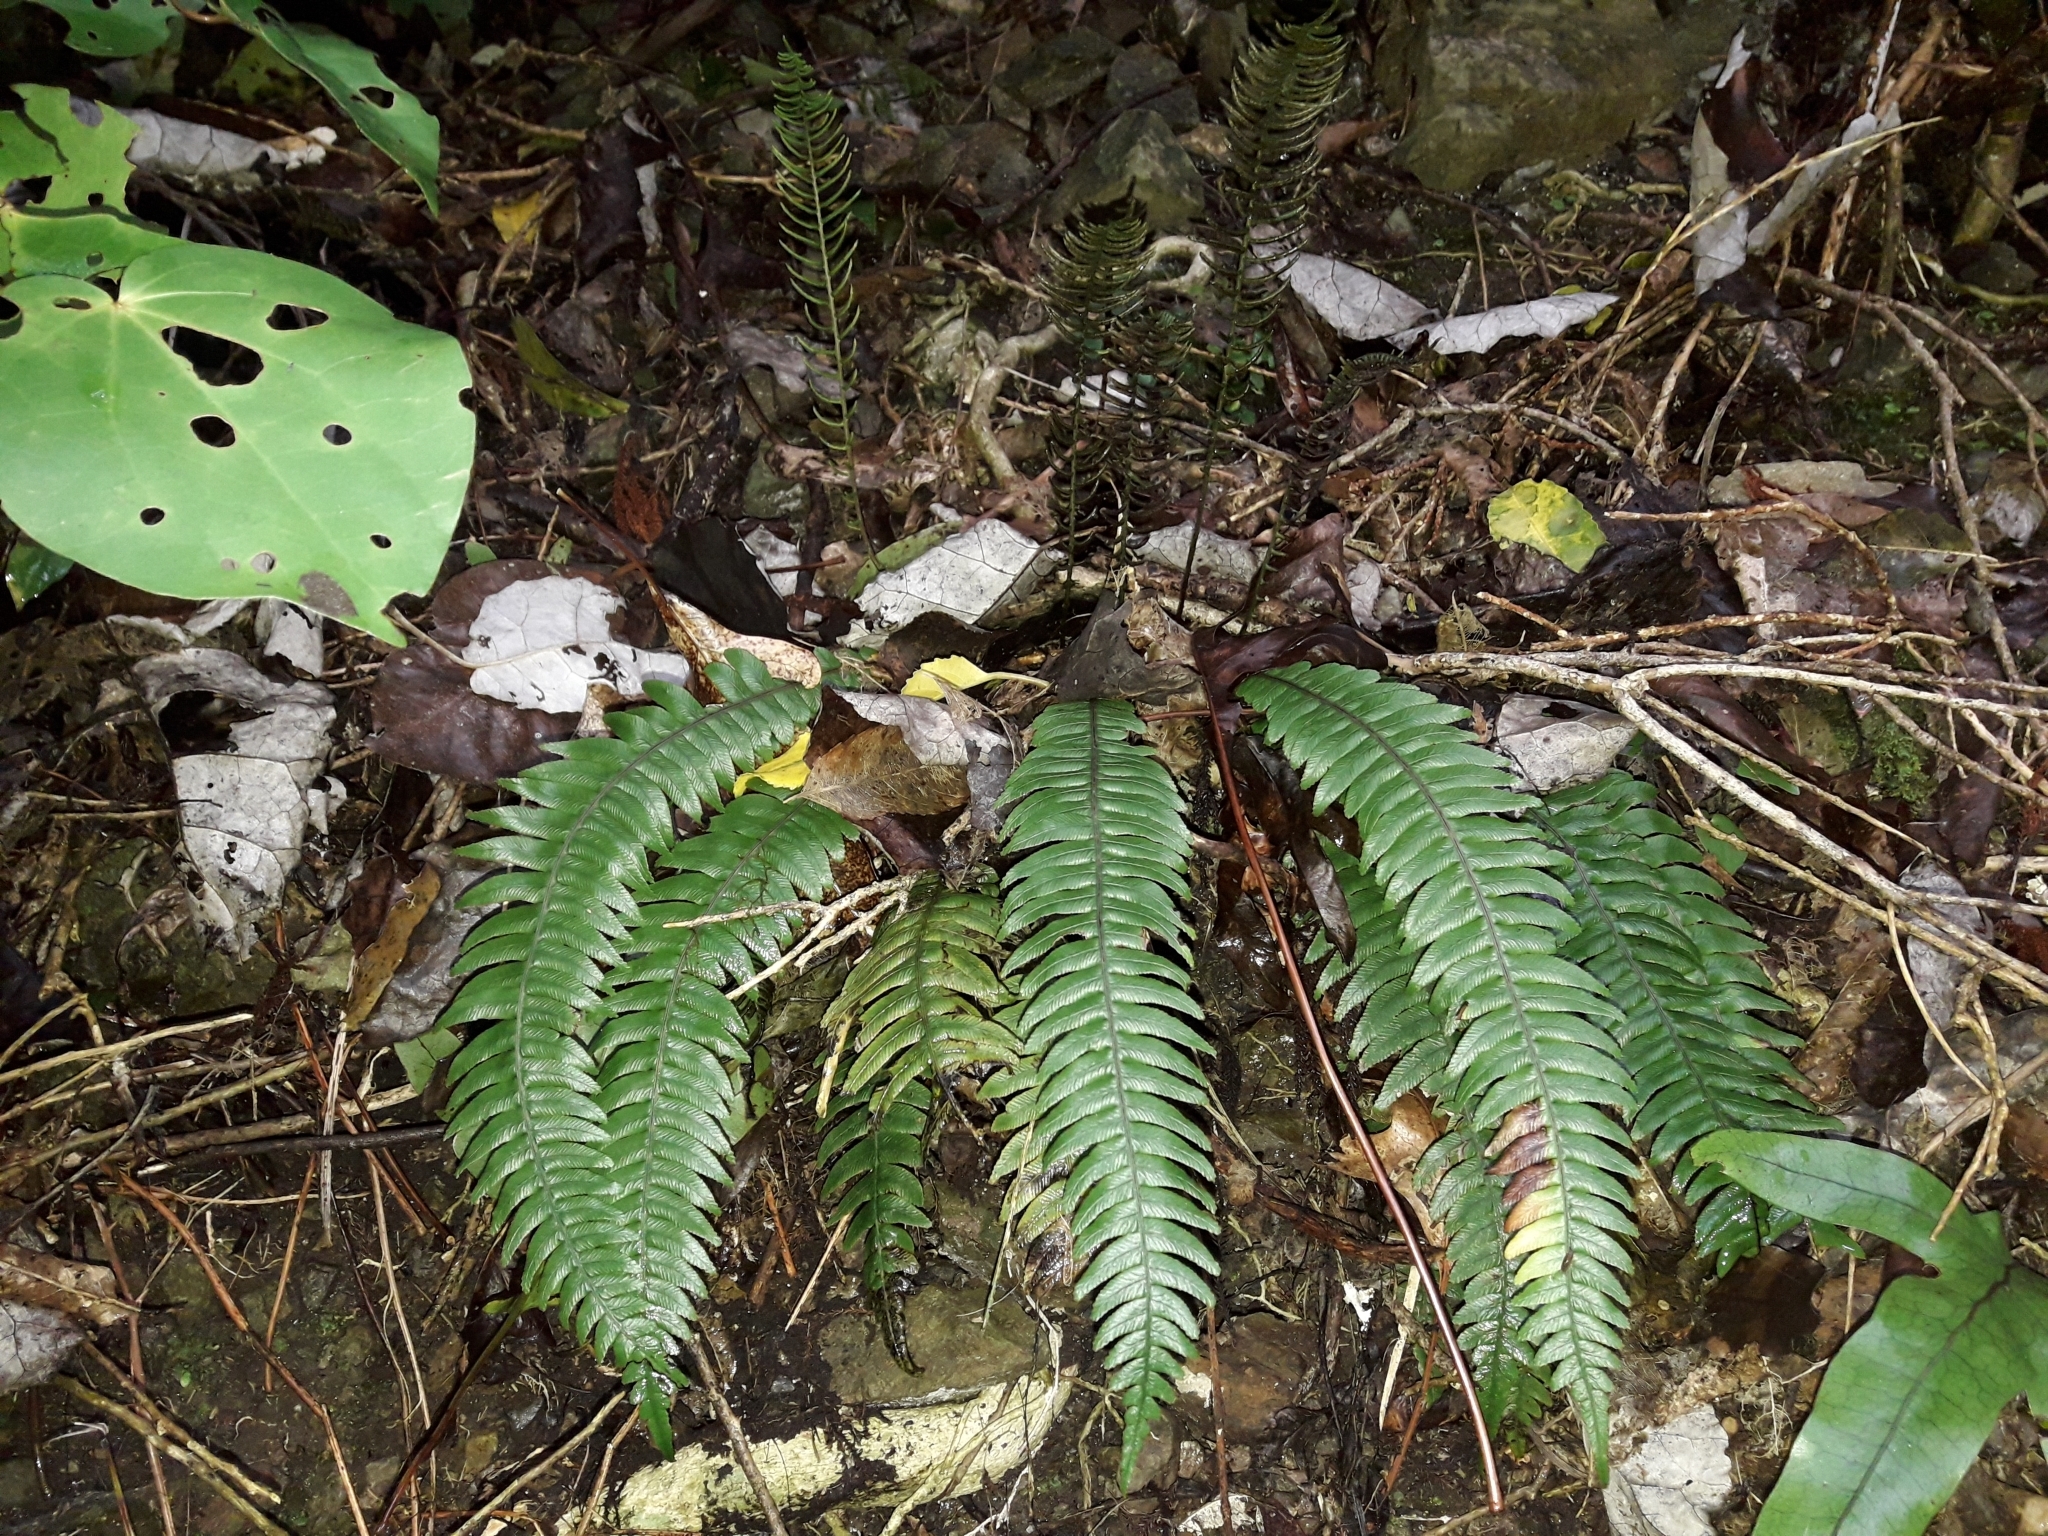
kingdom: Plantae
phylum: Tracheophyta
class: Polypodiopsida
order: Polypodiales
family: Blechnaceae
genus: Austroblechnum
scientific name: Austroblechnum lanceolatum
